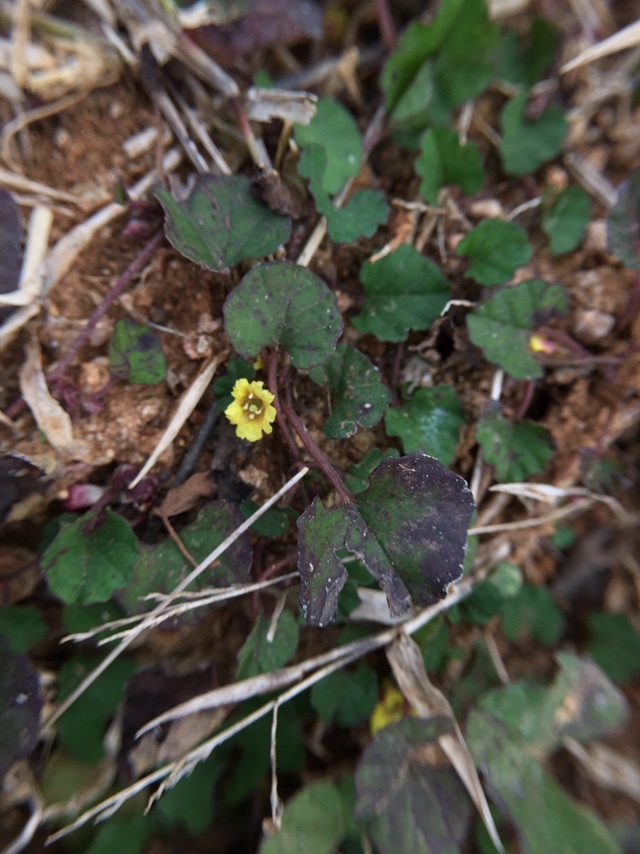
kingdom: Plantae
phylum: Tracheophyta
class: Magnoliopsida
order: Solanales
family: Convolvulaceae
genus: Merremia
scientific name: Merremia emarginata
